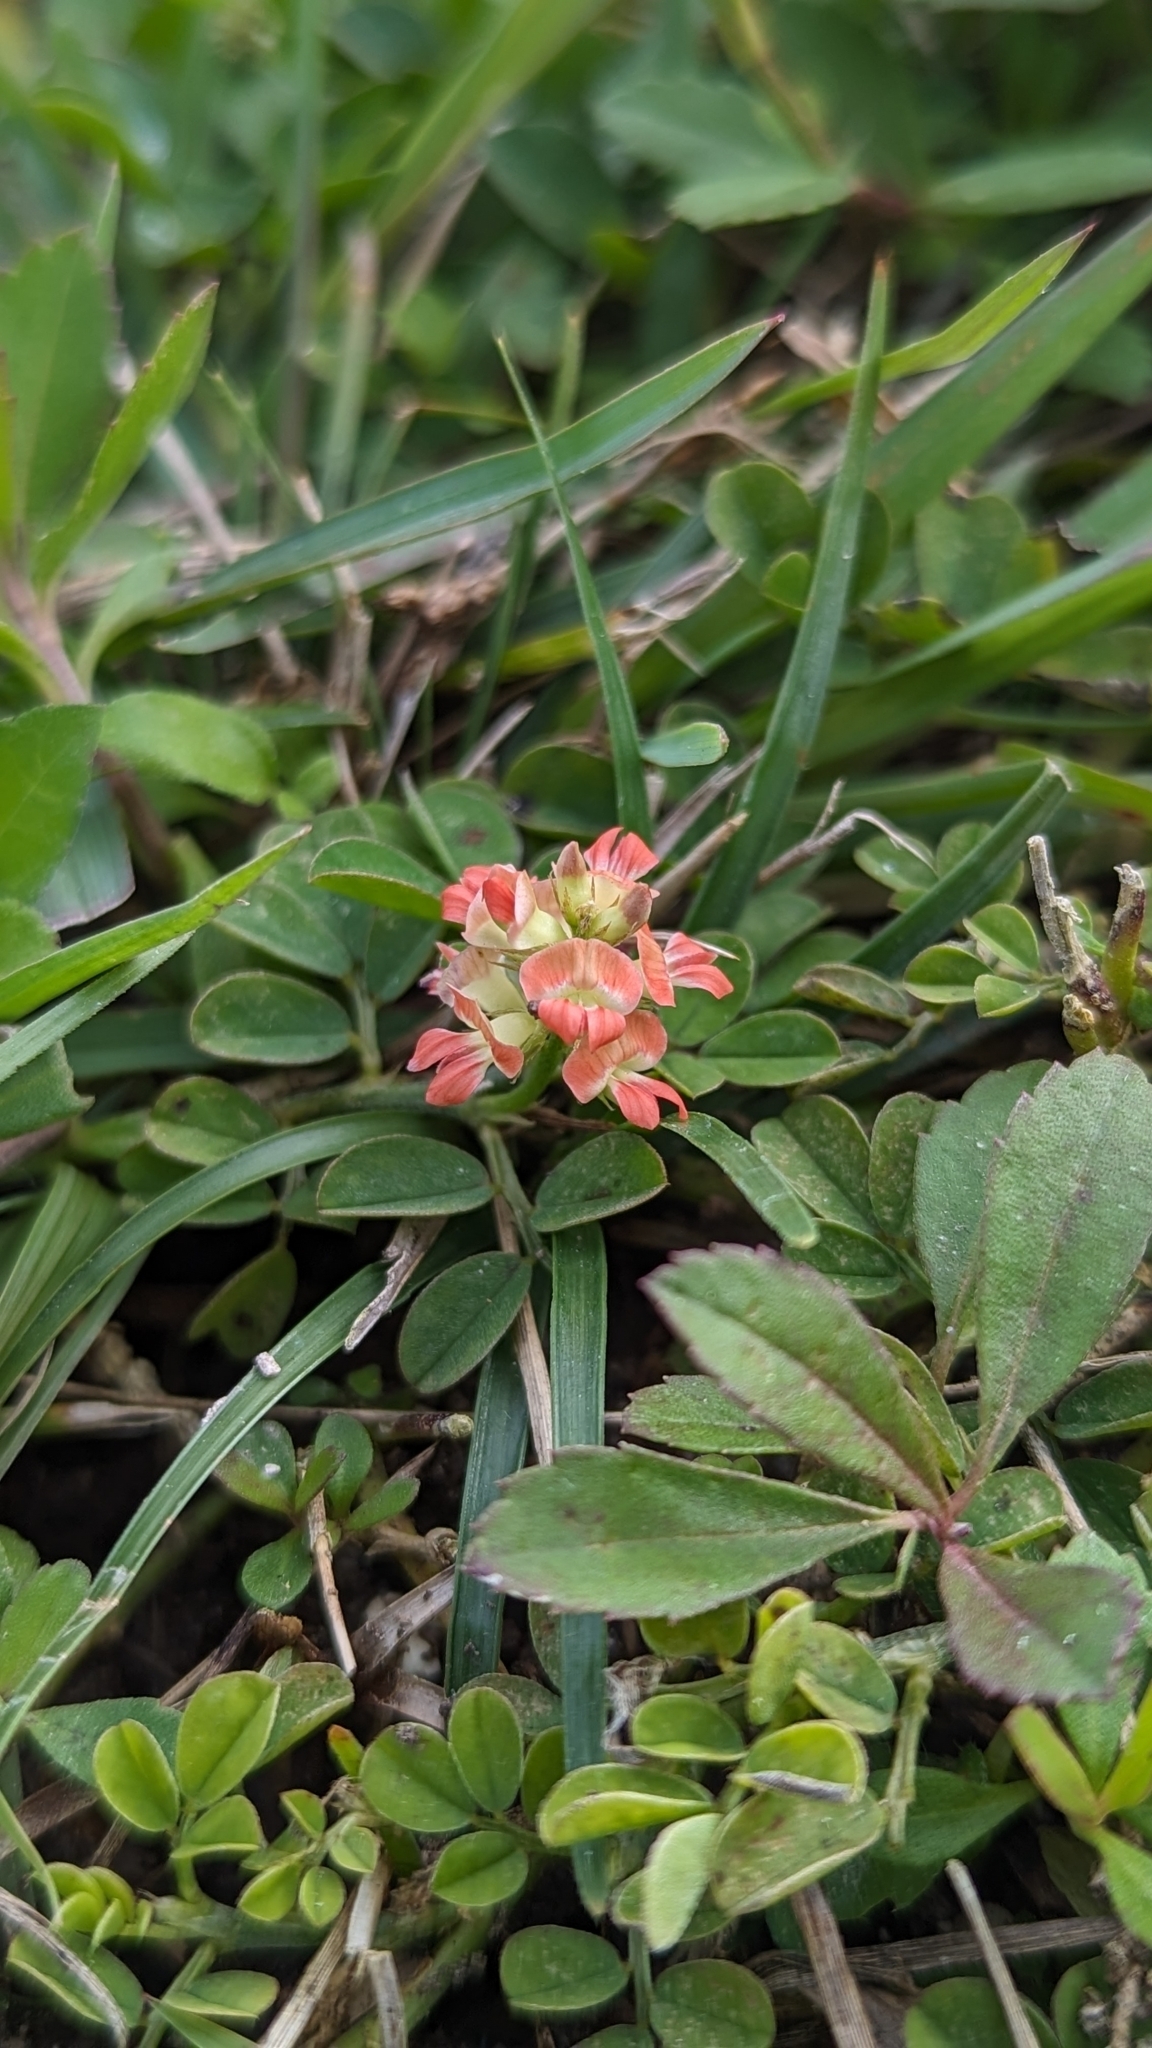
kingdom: Plantae
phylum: Tracheophyta
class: Magnoliopsida
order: Fabales
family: Fabaceae
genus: Indigofera
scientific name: Indigofera spicata
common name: Creeping indigo
